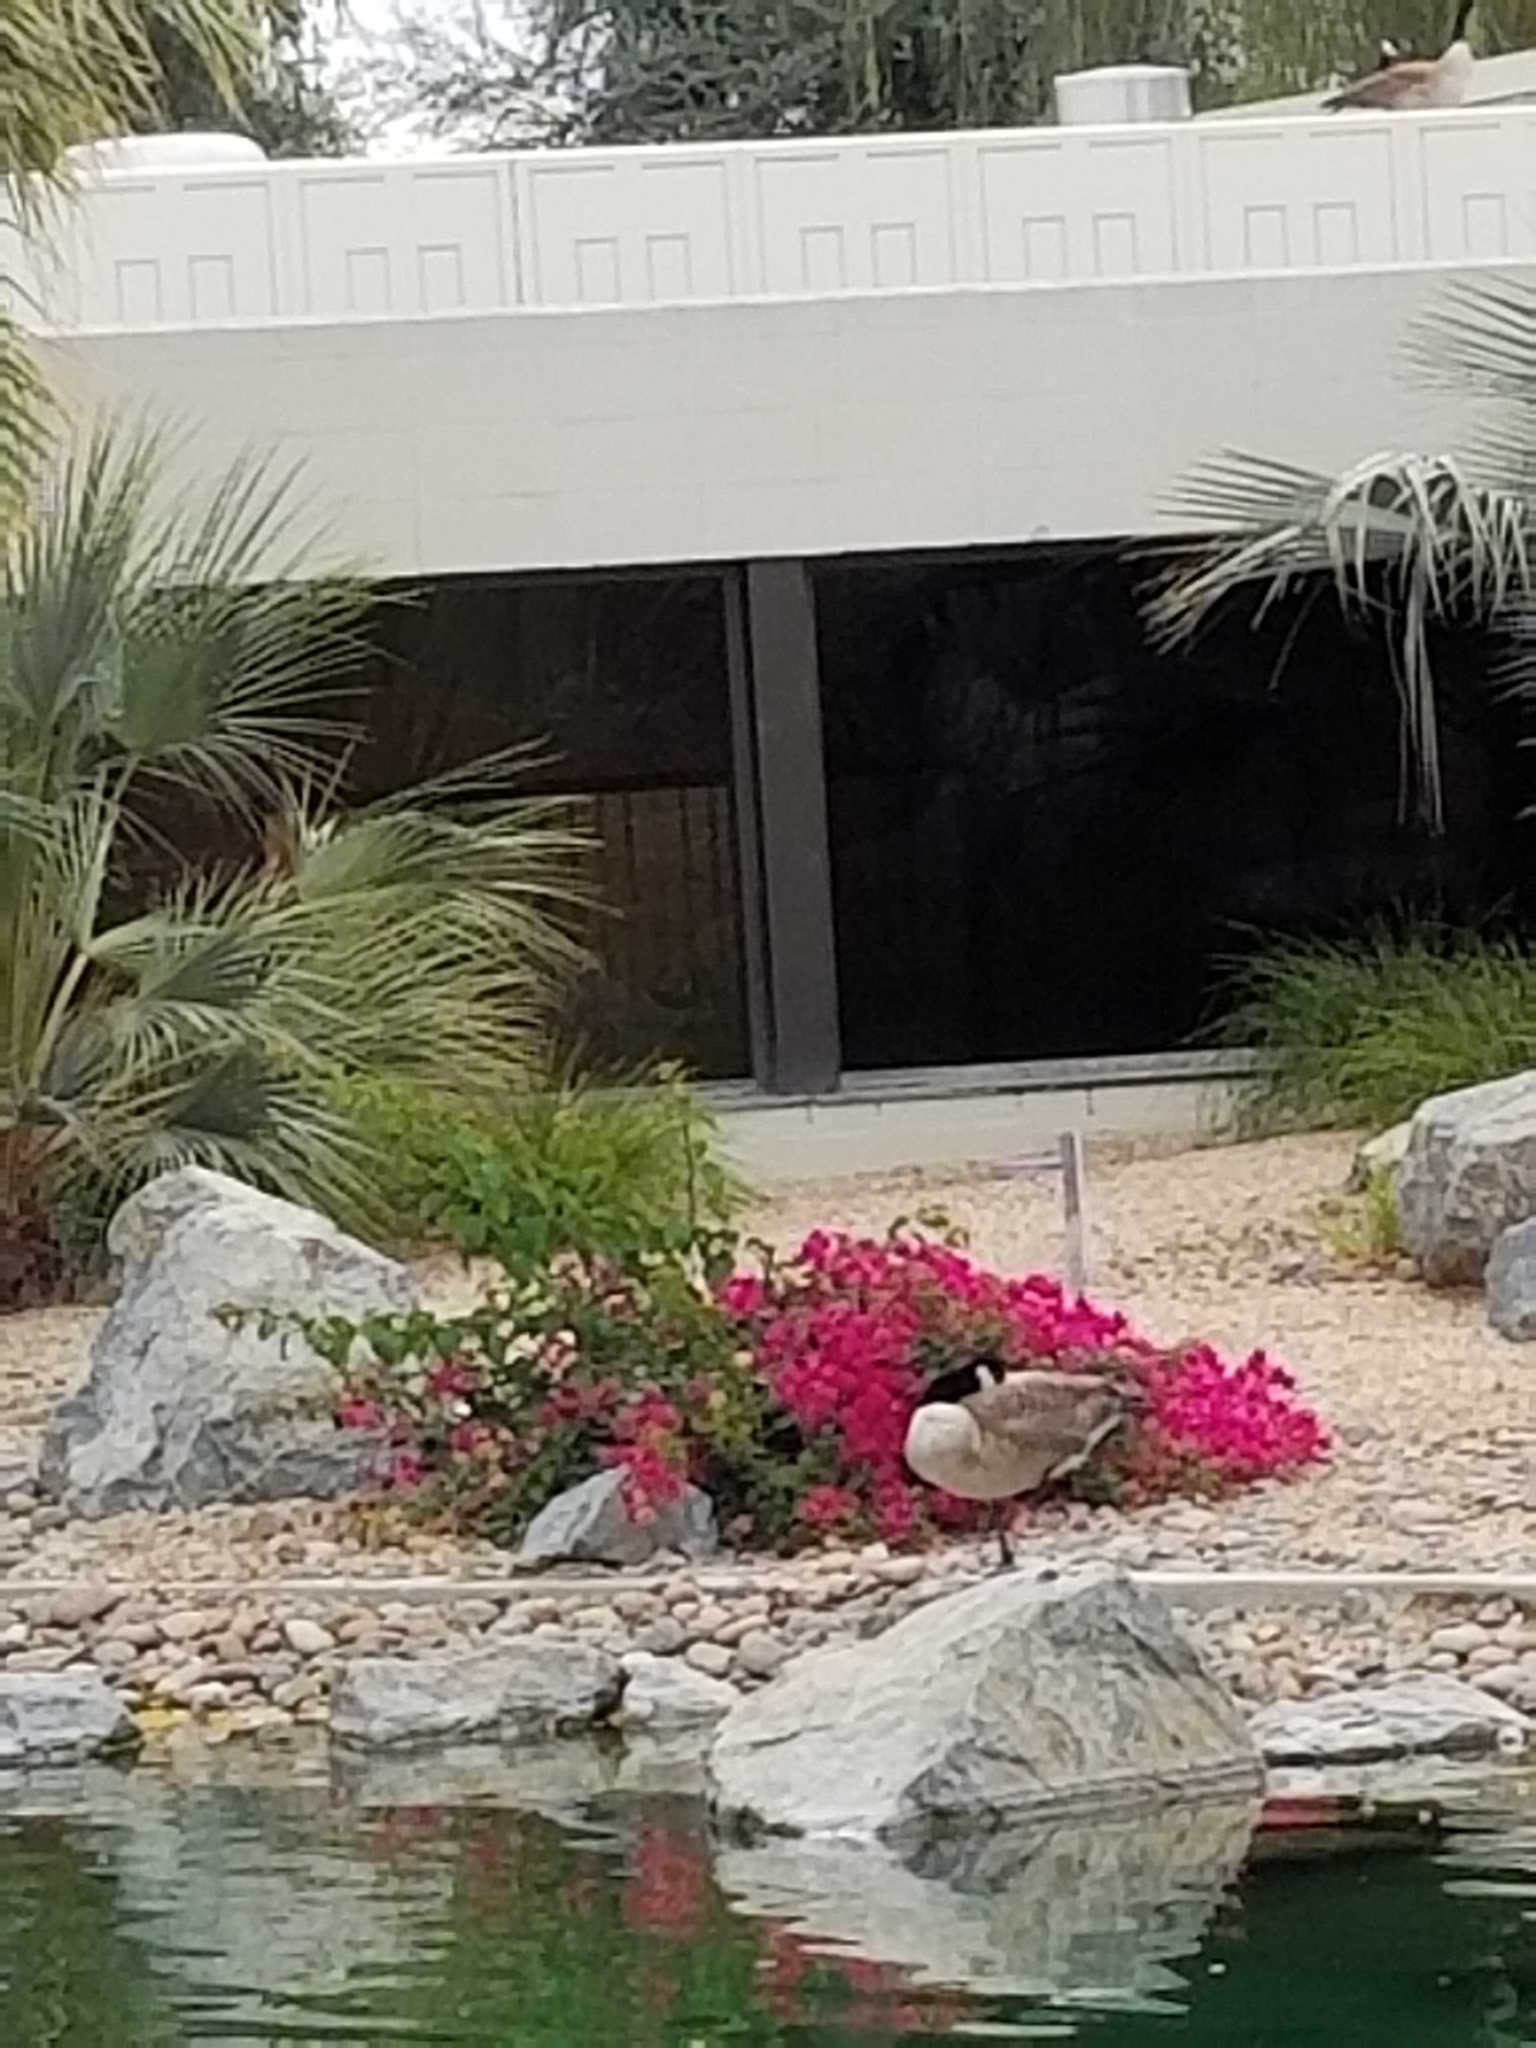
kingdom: Animalia
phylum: Chordata
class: Aves
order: Anseriformes
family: Anatidae
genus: Branta
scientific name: Branta canadensis
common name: Canada goose
